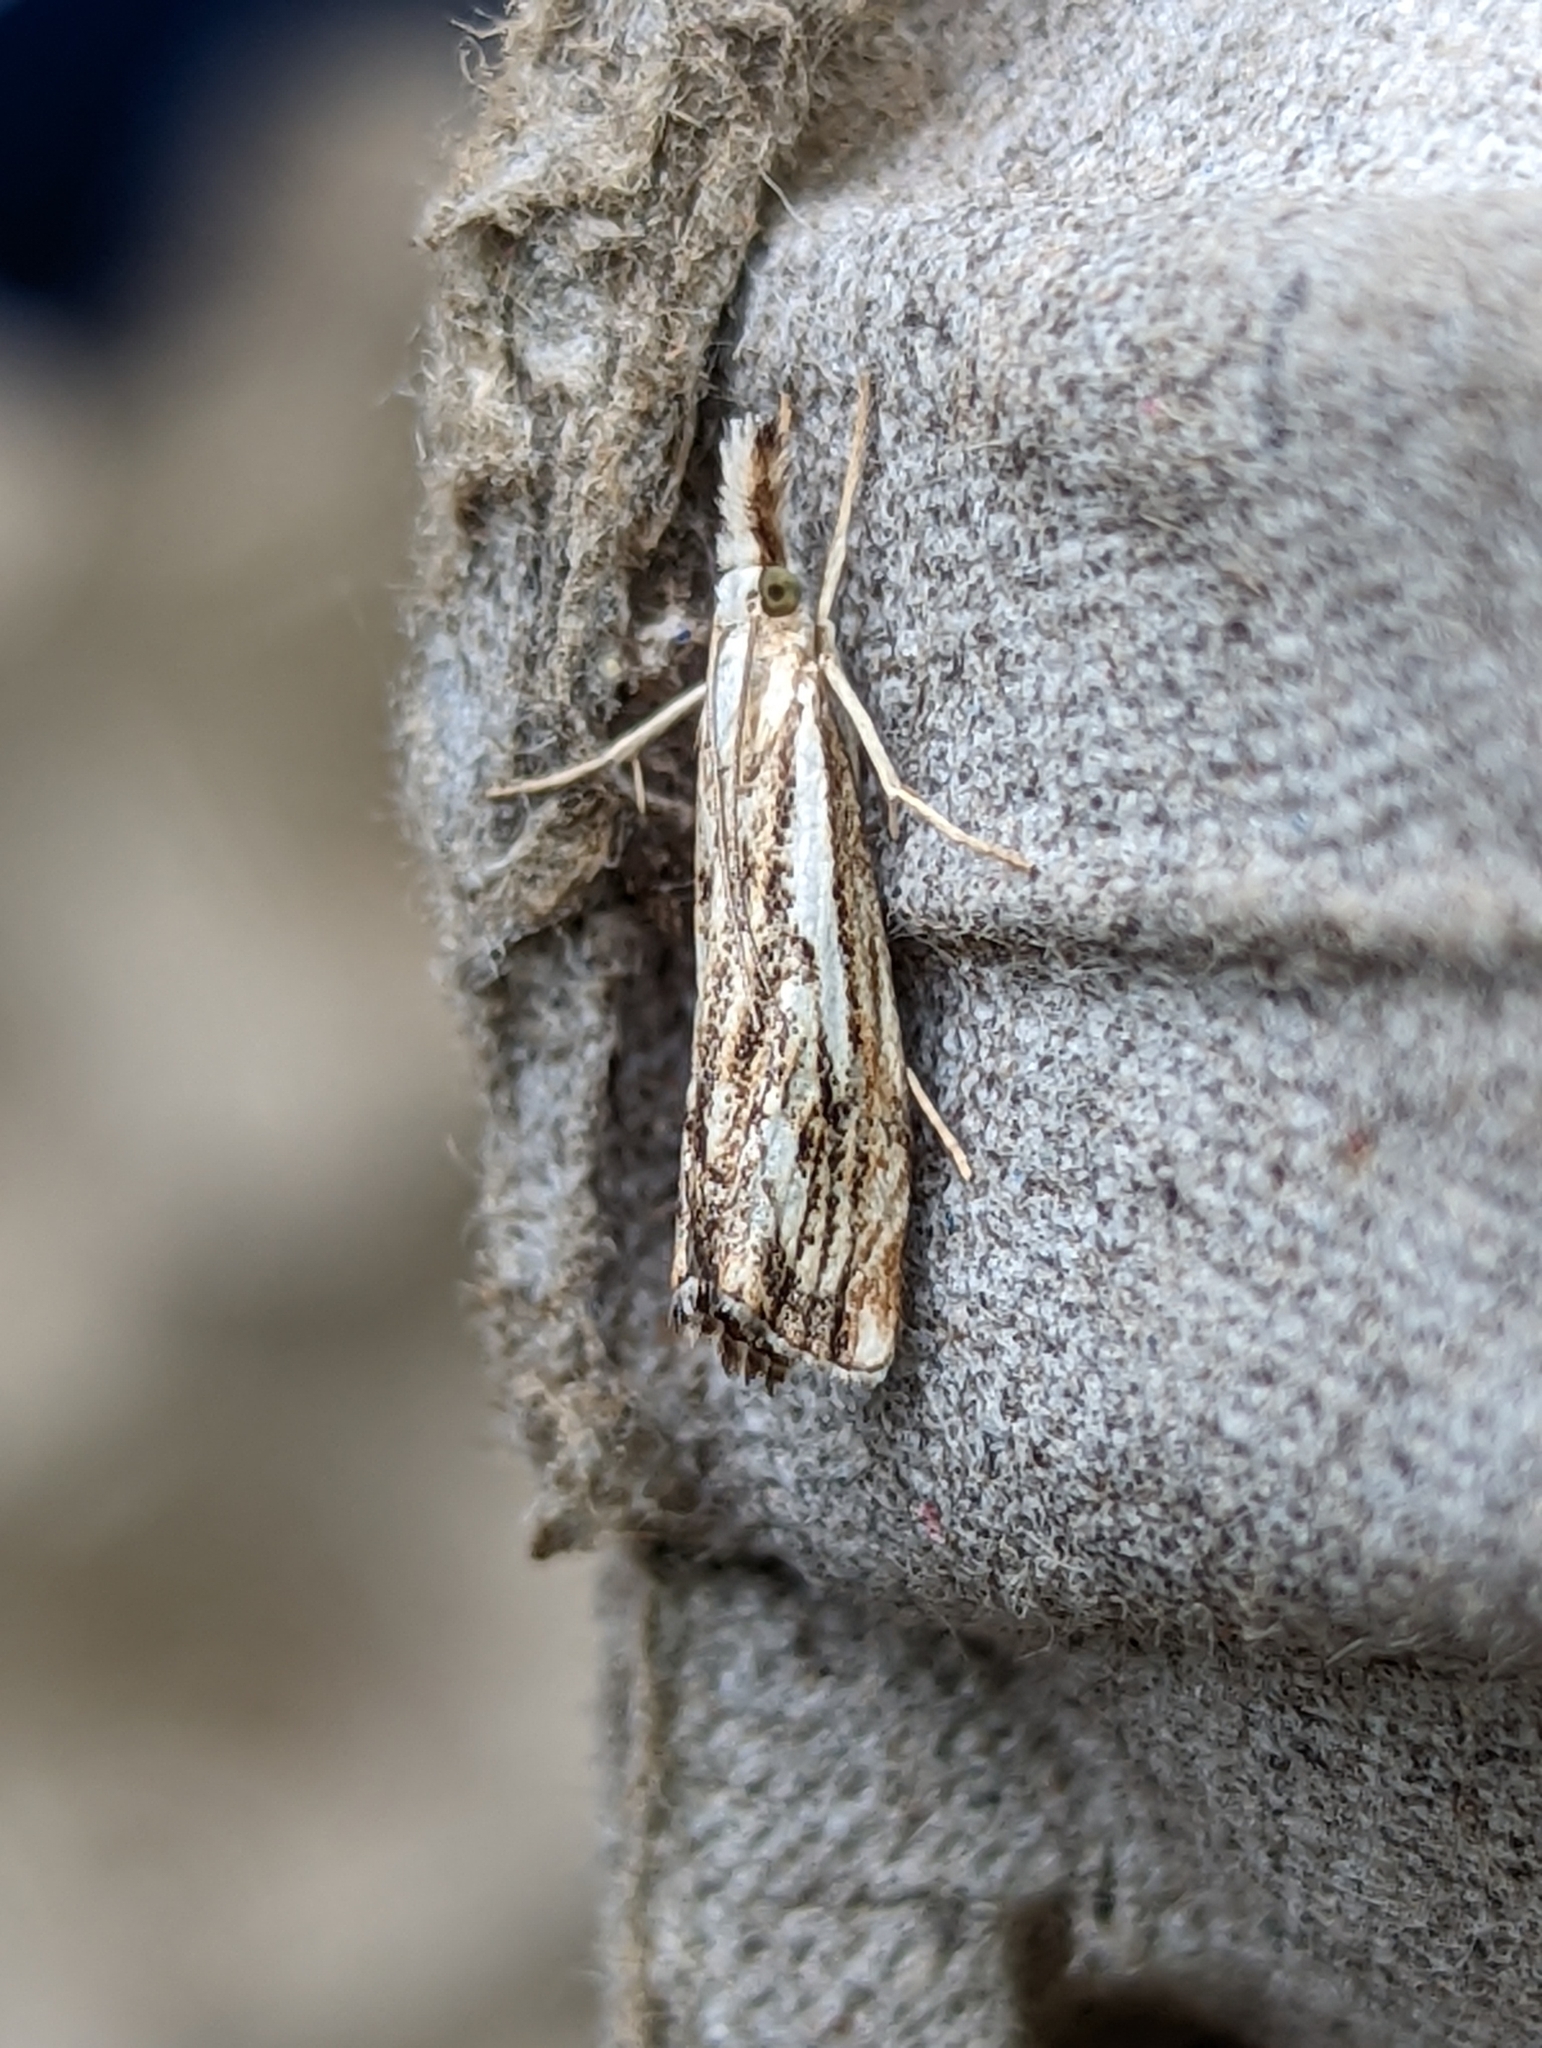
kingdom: Animalia
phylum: Arthropoda
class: Insecta
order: Lepidoptera
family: Crambidae
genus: Catoptria
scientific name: Catoptria falsella
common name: Chequered grass-veneer
